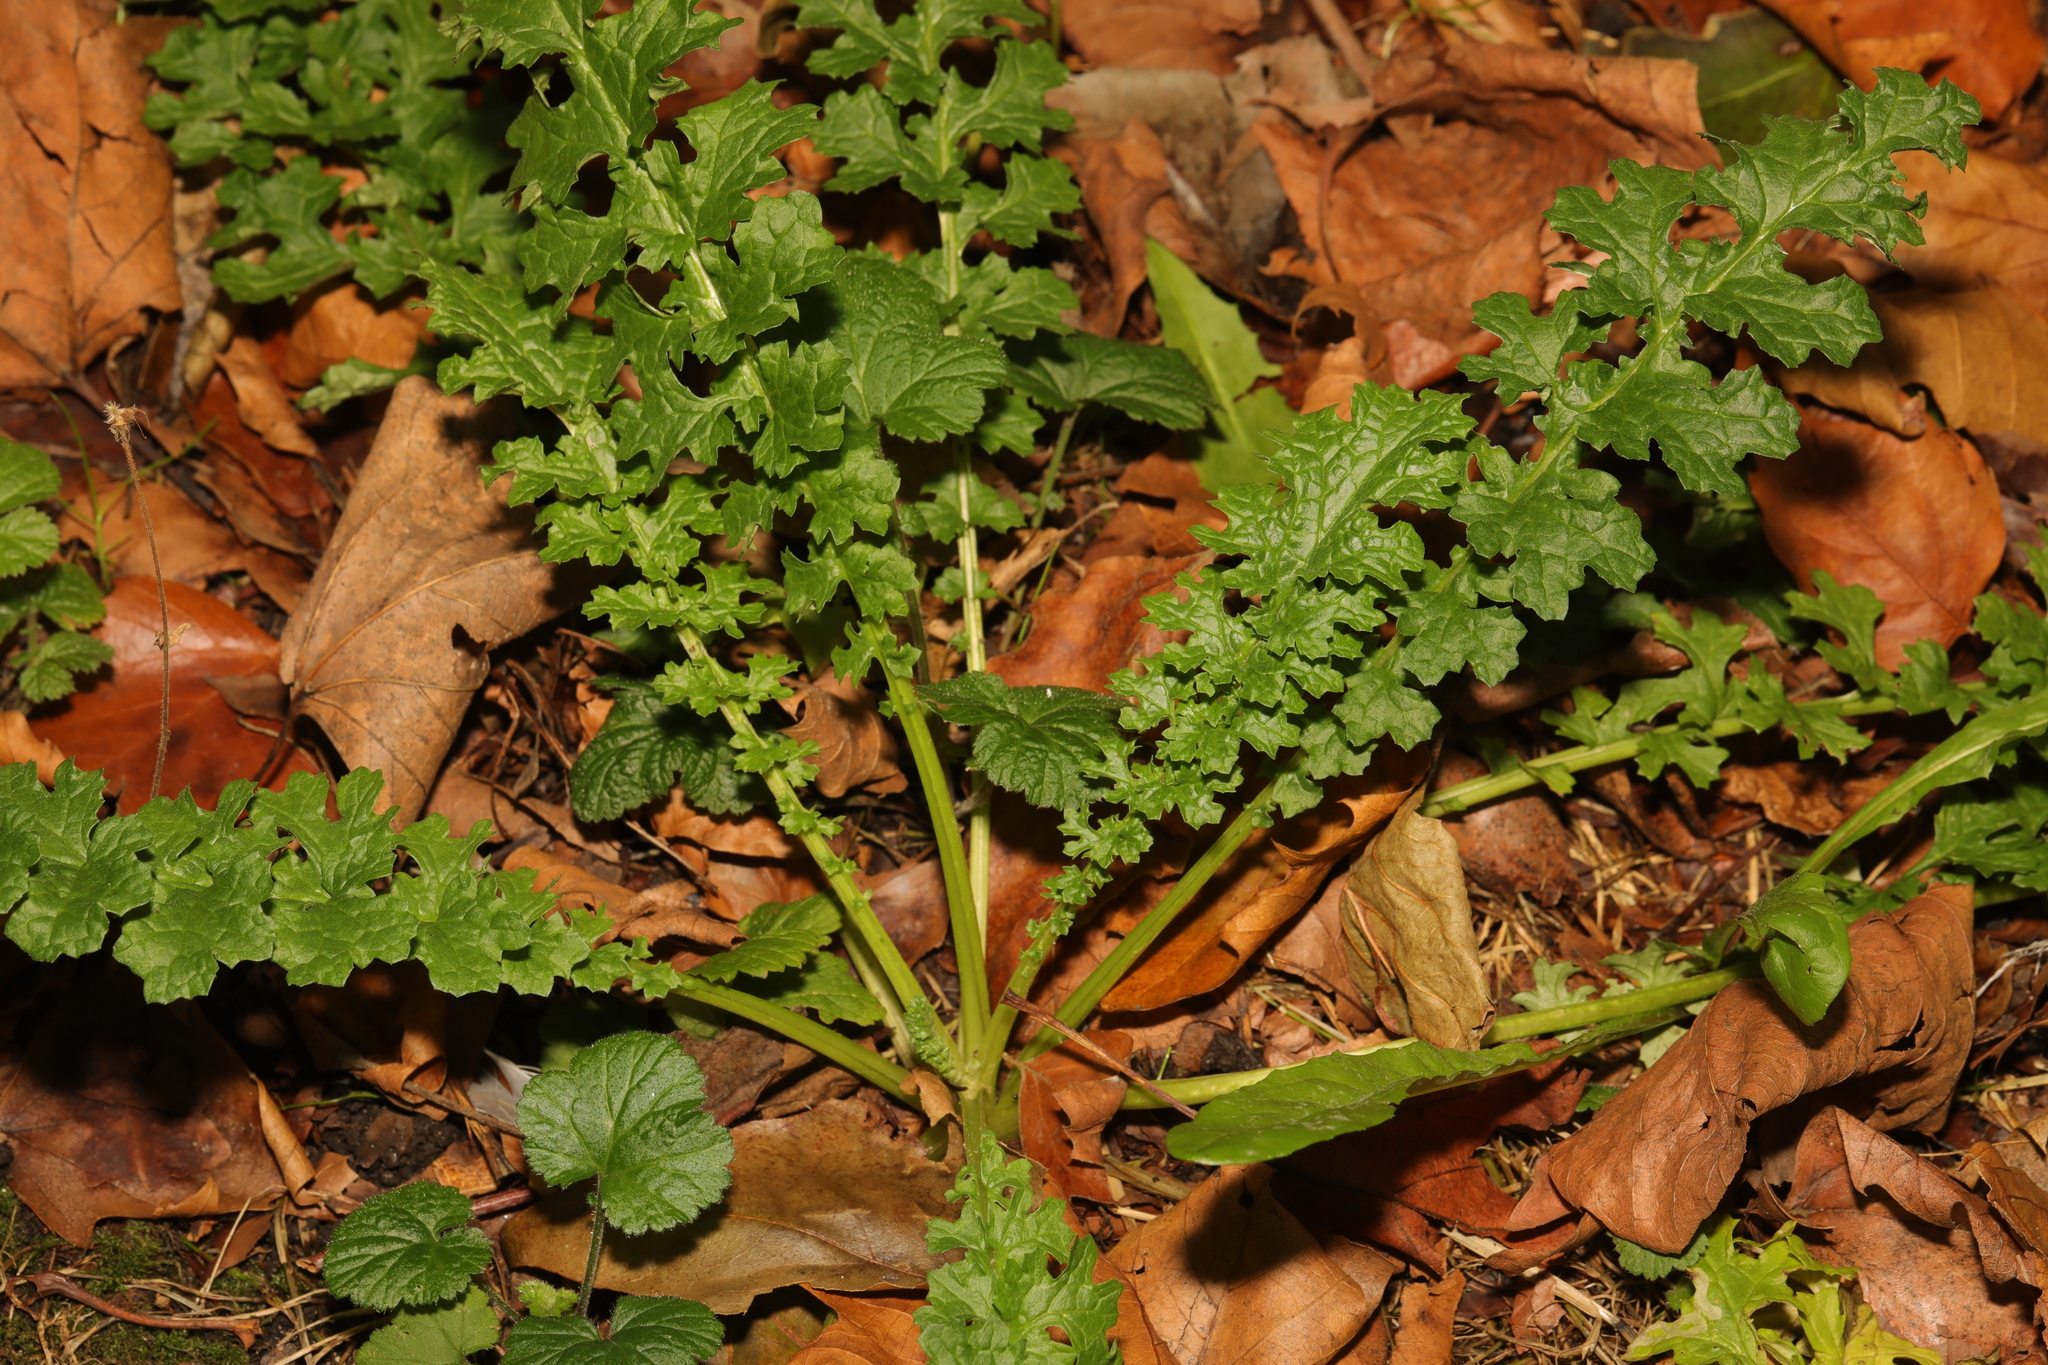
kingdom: Plantae
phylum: Tracheophyta
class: Magnoliopsida
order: Asterales
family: Asteraceae
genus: Jacobaea
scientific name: Jacobaea vulgaris
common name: Stinking willie
